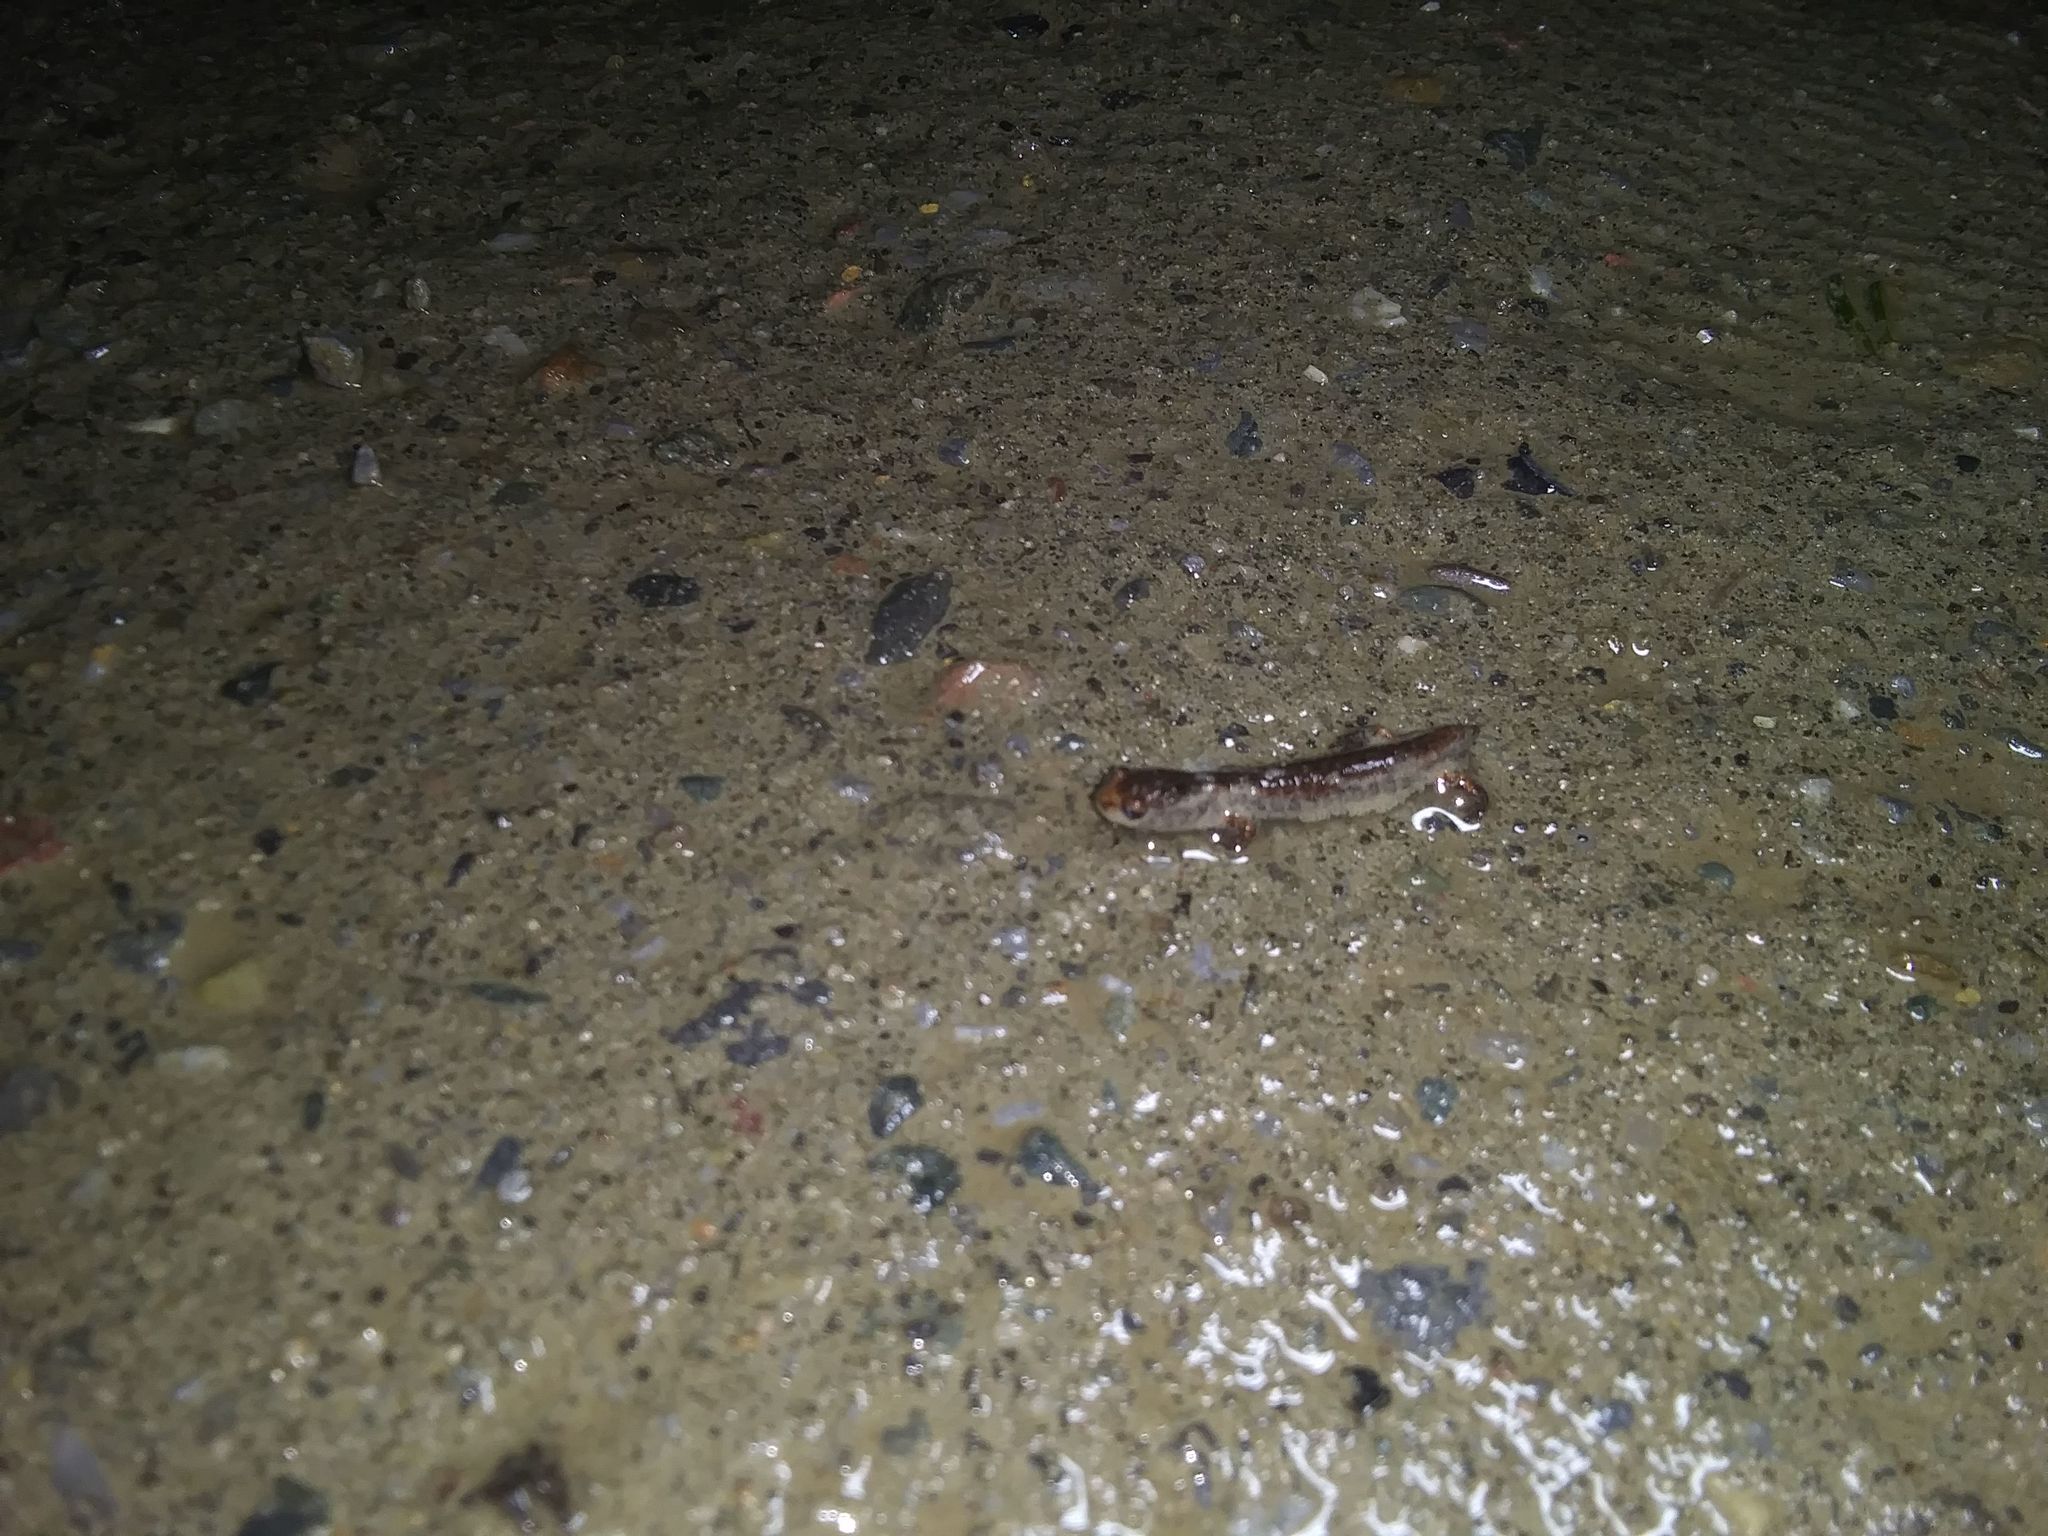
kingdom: Animalia
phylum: Chordata
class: Amphibia
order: Caudata
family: Plethodontidae
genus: Hemidactylium
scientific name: Hemidactylium scutatum
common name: Four-toed salamander
